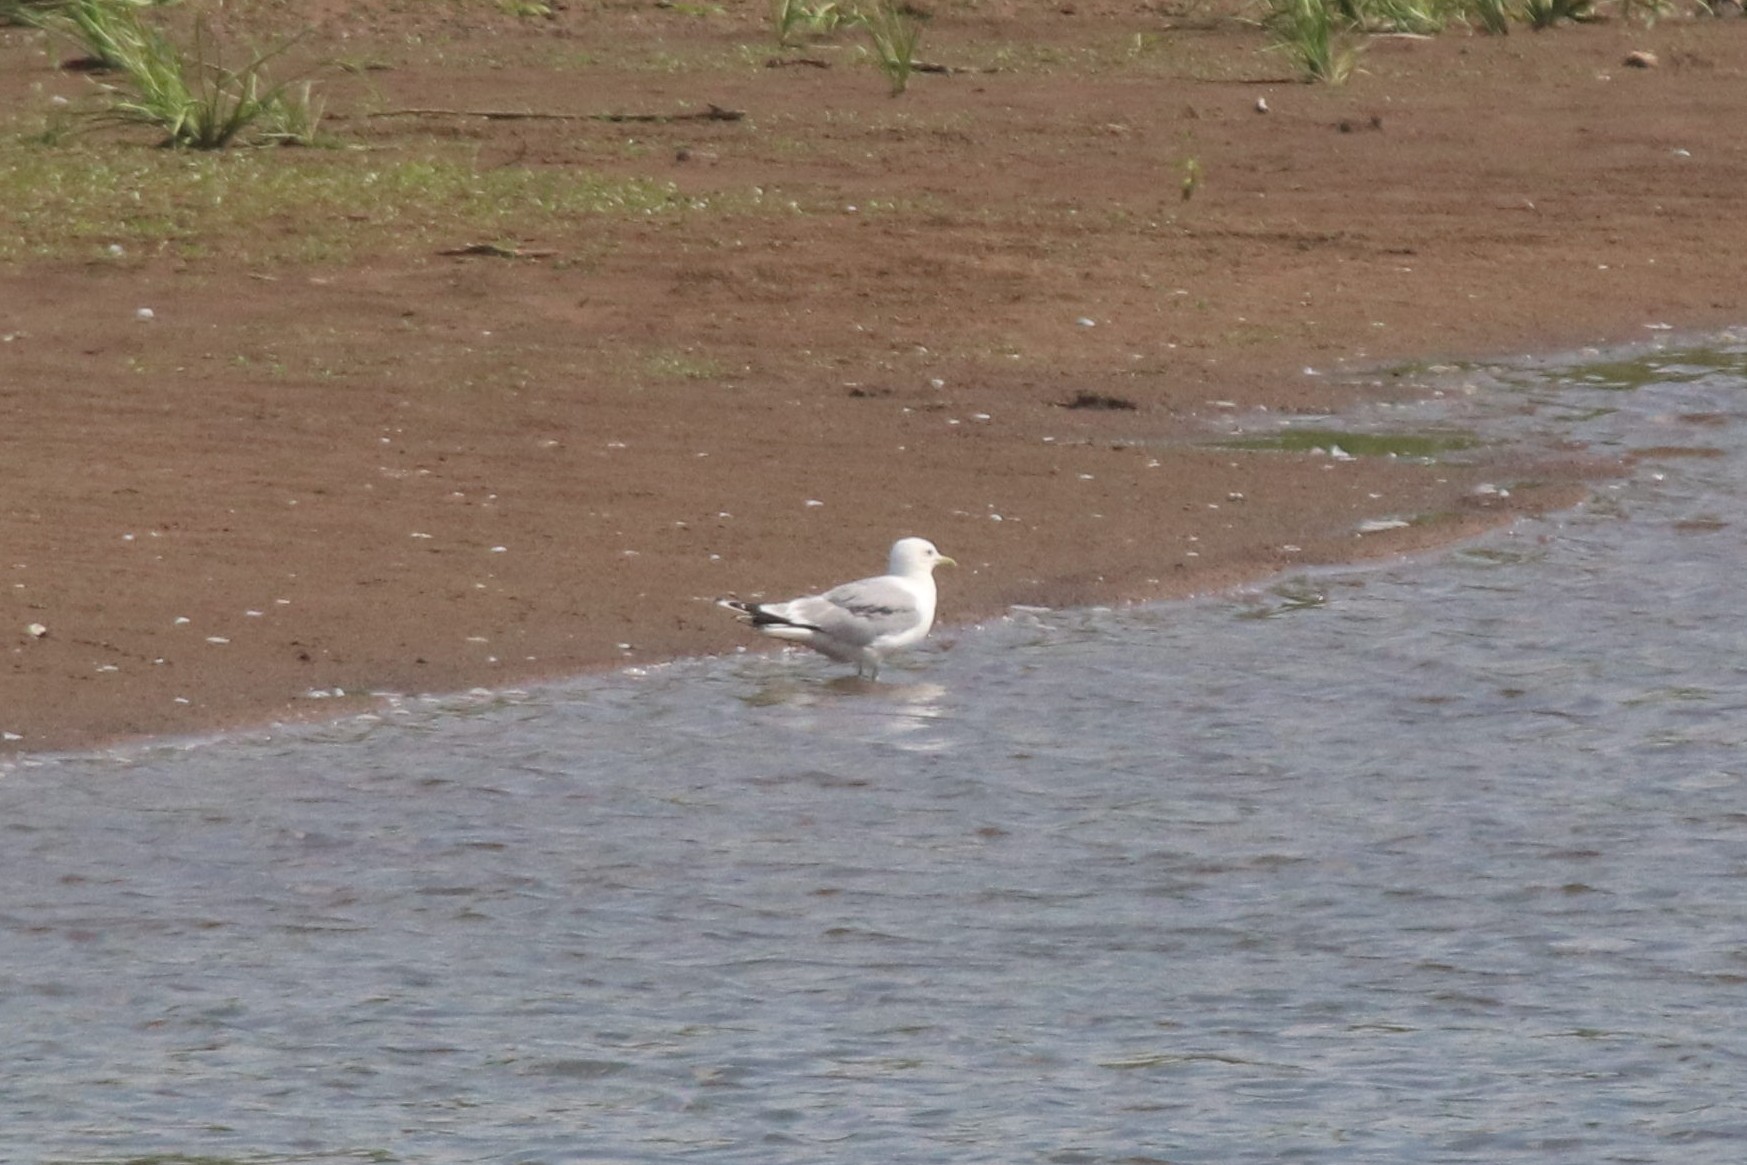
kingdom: Animalia
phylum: Chordata
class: Aves
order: Charadriiformes
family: Laridae
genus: Larus
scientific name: Larus canus
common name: Mew gull
